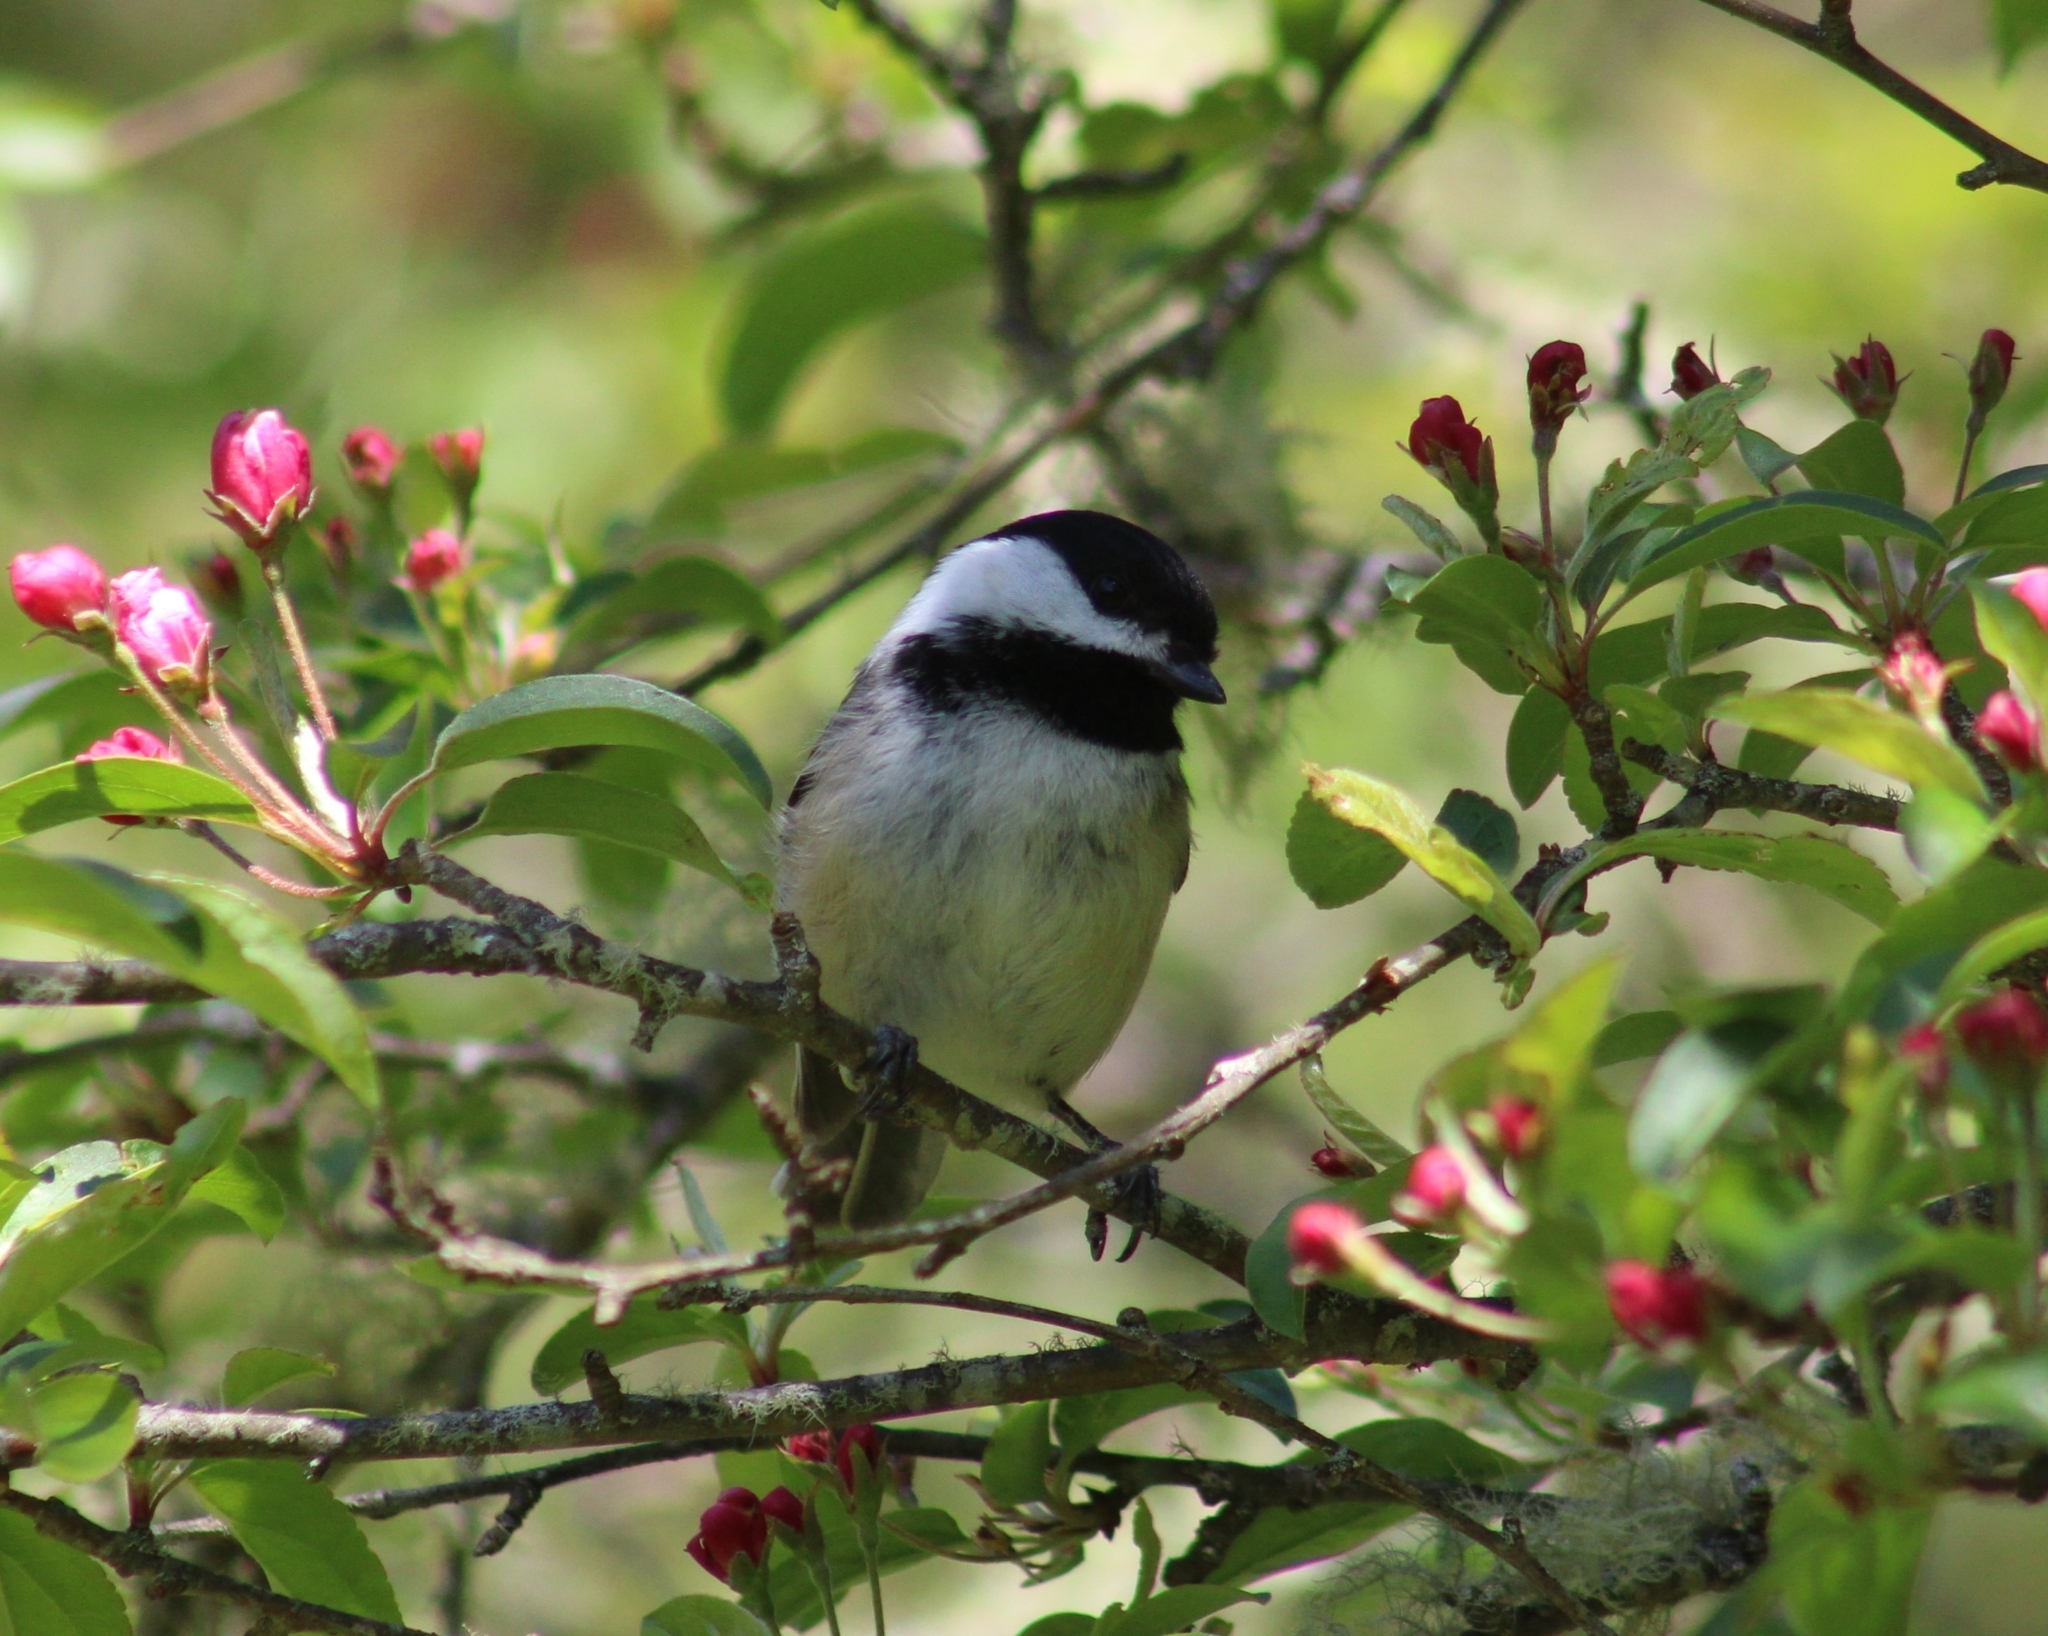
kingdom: Animalia
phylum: Chordata
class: Aves
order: Passeriformes
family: Paridae
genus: Poecile
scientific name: Poecile atricapillus
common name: Black-capped chickadee
